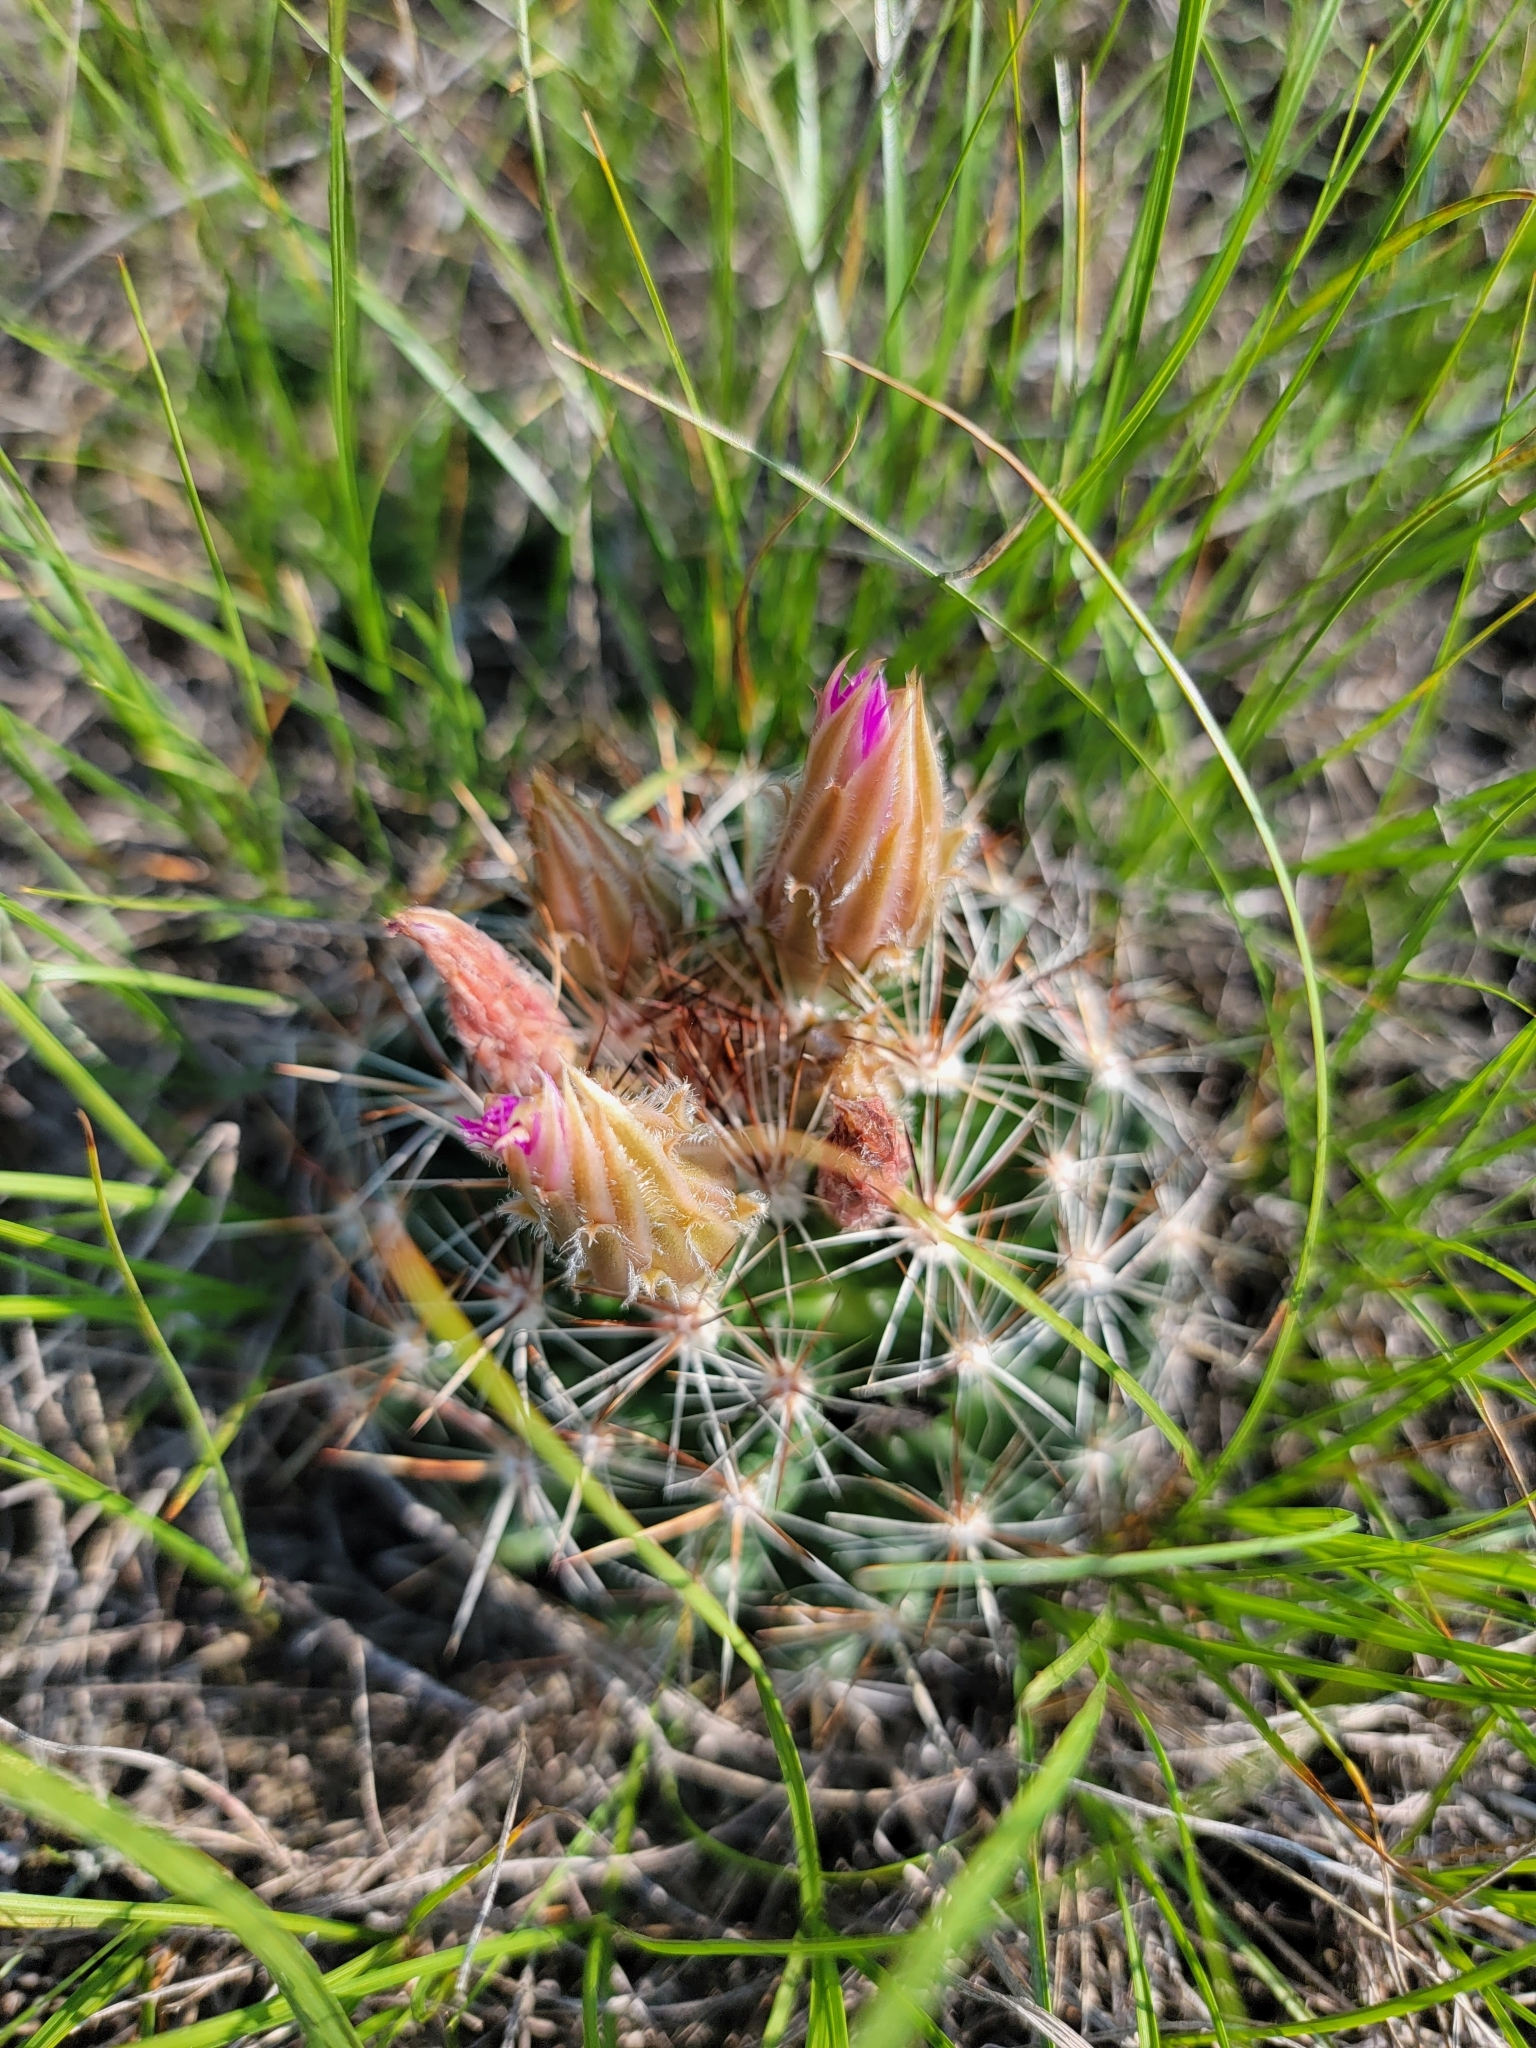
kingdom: Plantae
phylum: Tracheophyta
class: Magnoliopsida
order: Caryophyllales
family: Cactaceae
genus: Pelecyphora
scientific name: Pelecyphora vivipara
